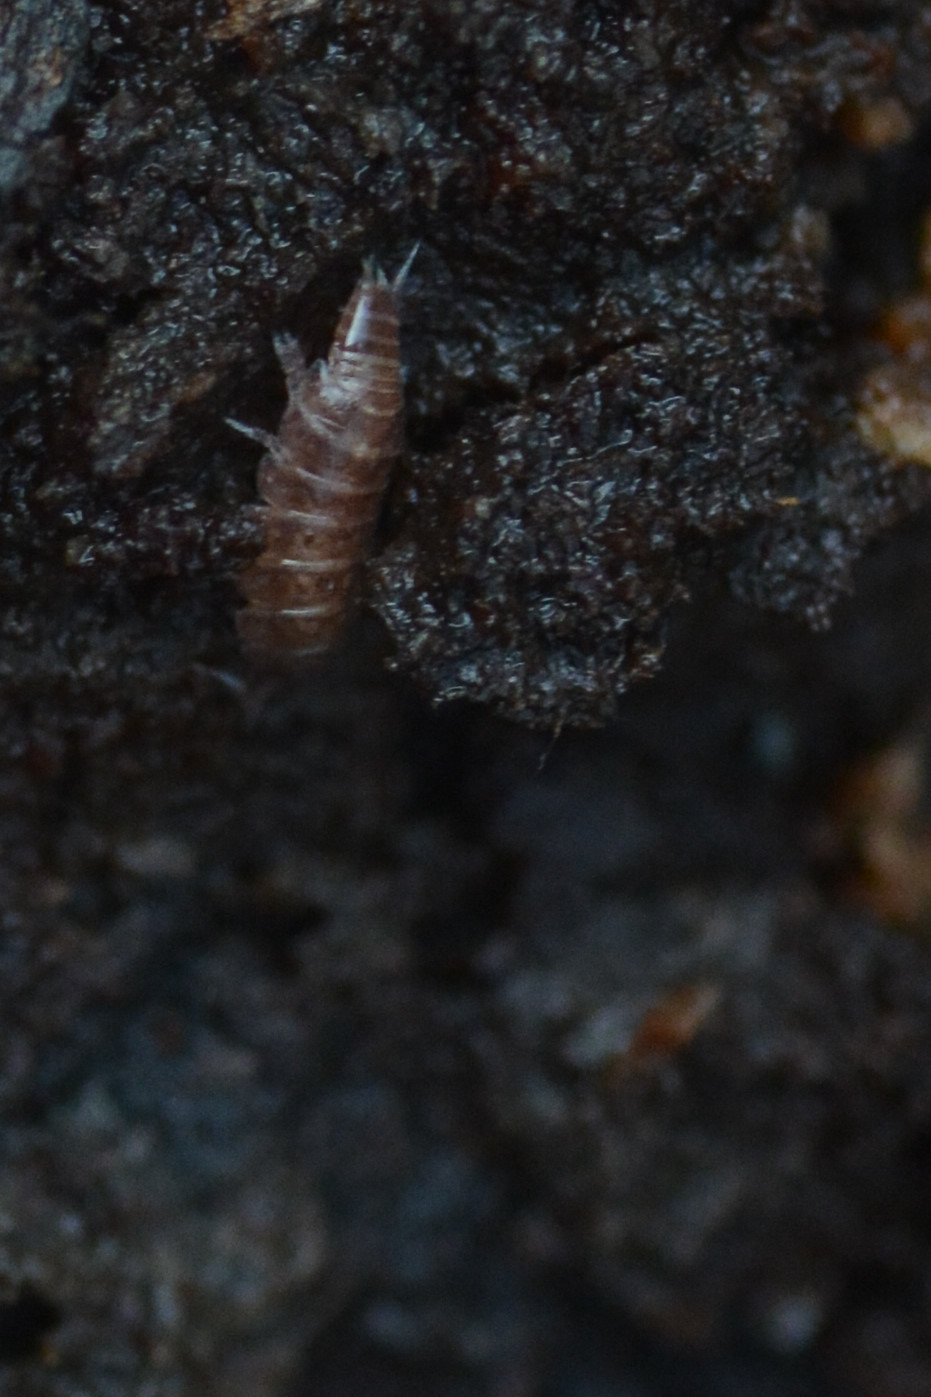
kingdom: Animalia
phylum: Arthropoda
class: Malacostraca
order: Isopoda
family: Trichoniscidae
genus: Trichoniscus
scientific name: Trichoniscus
